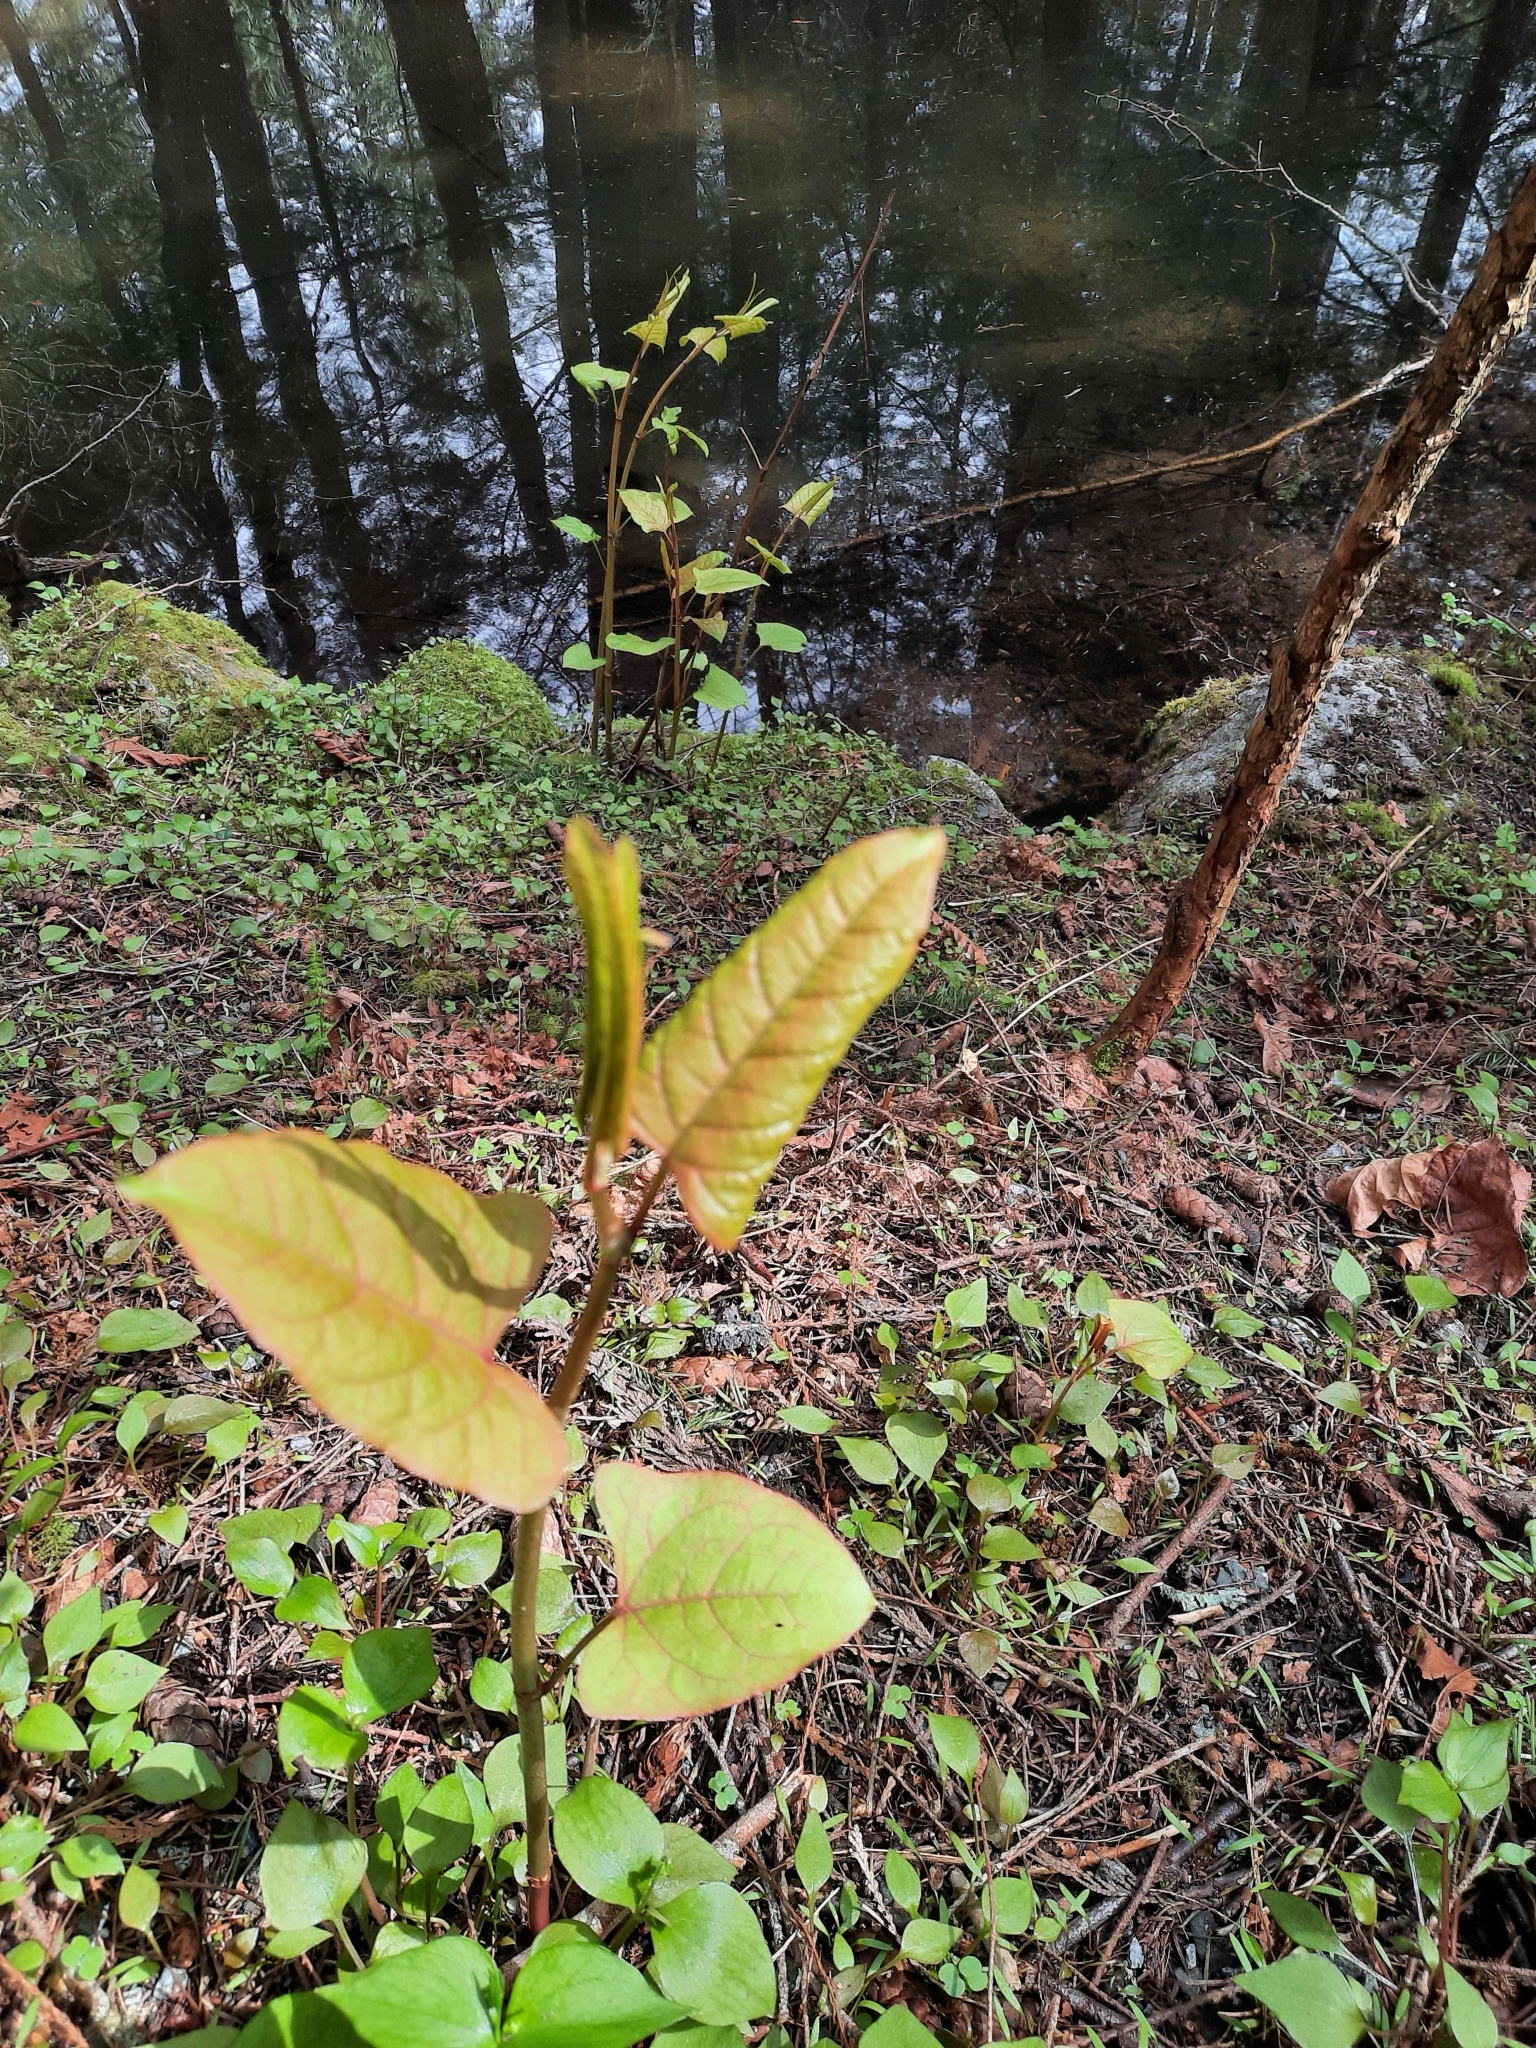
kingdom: Plantae
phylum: Tracheophyta
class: Magnoliopsida
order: Caryophyllales
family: Polygonaceae
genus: Reynoutria
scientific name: Reynoutria bohemica
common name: Bohemian knotweed
